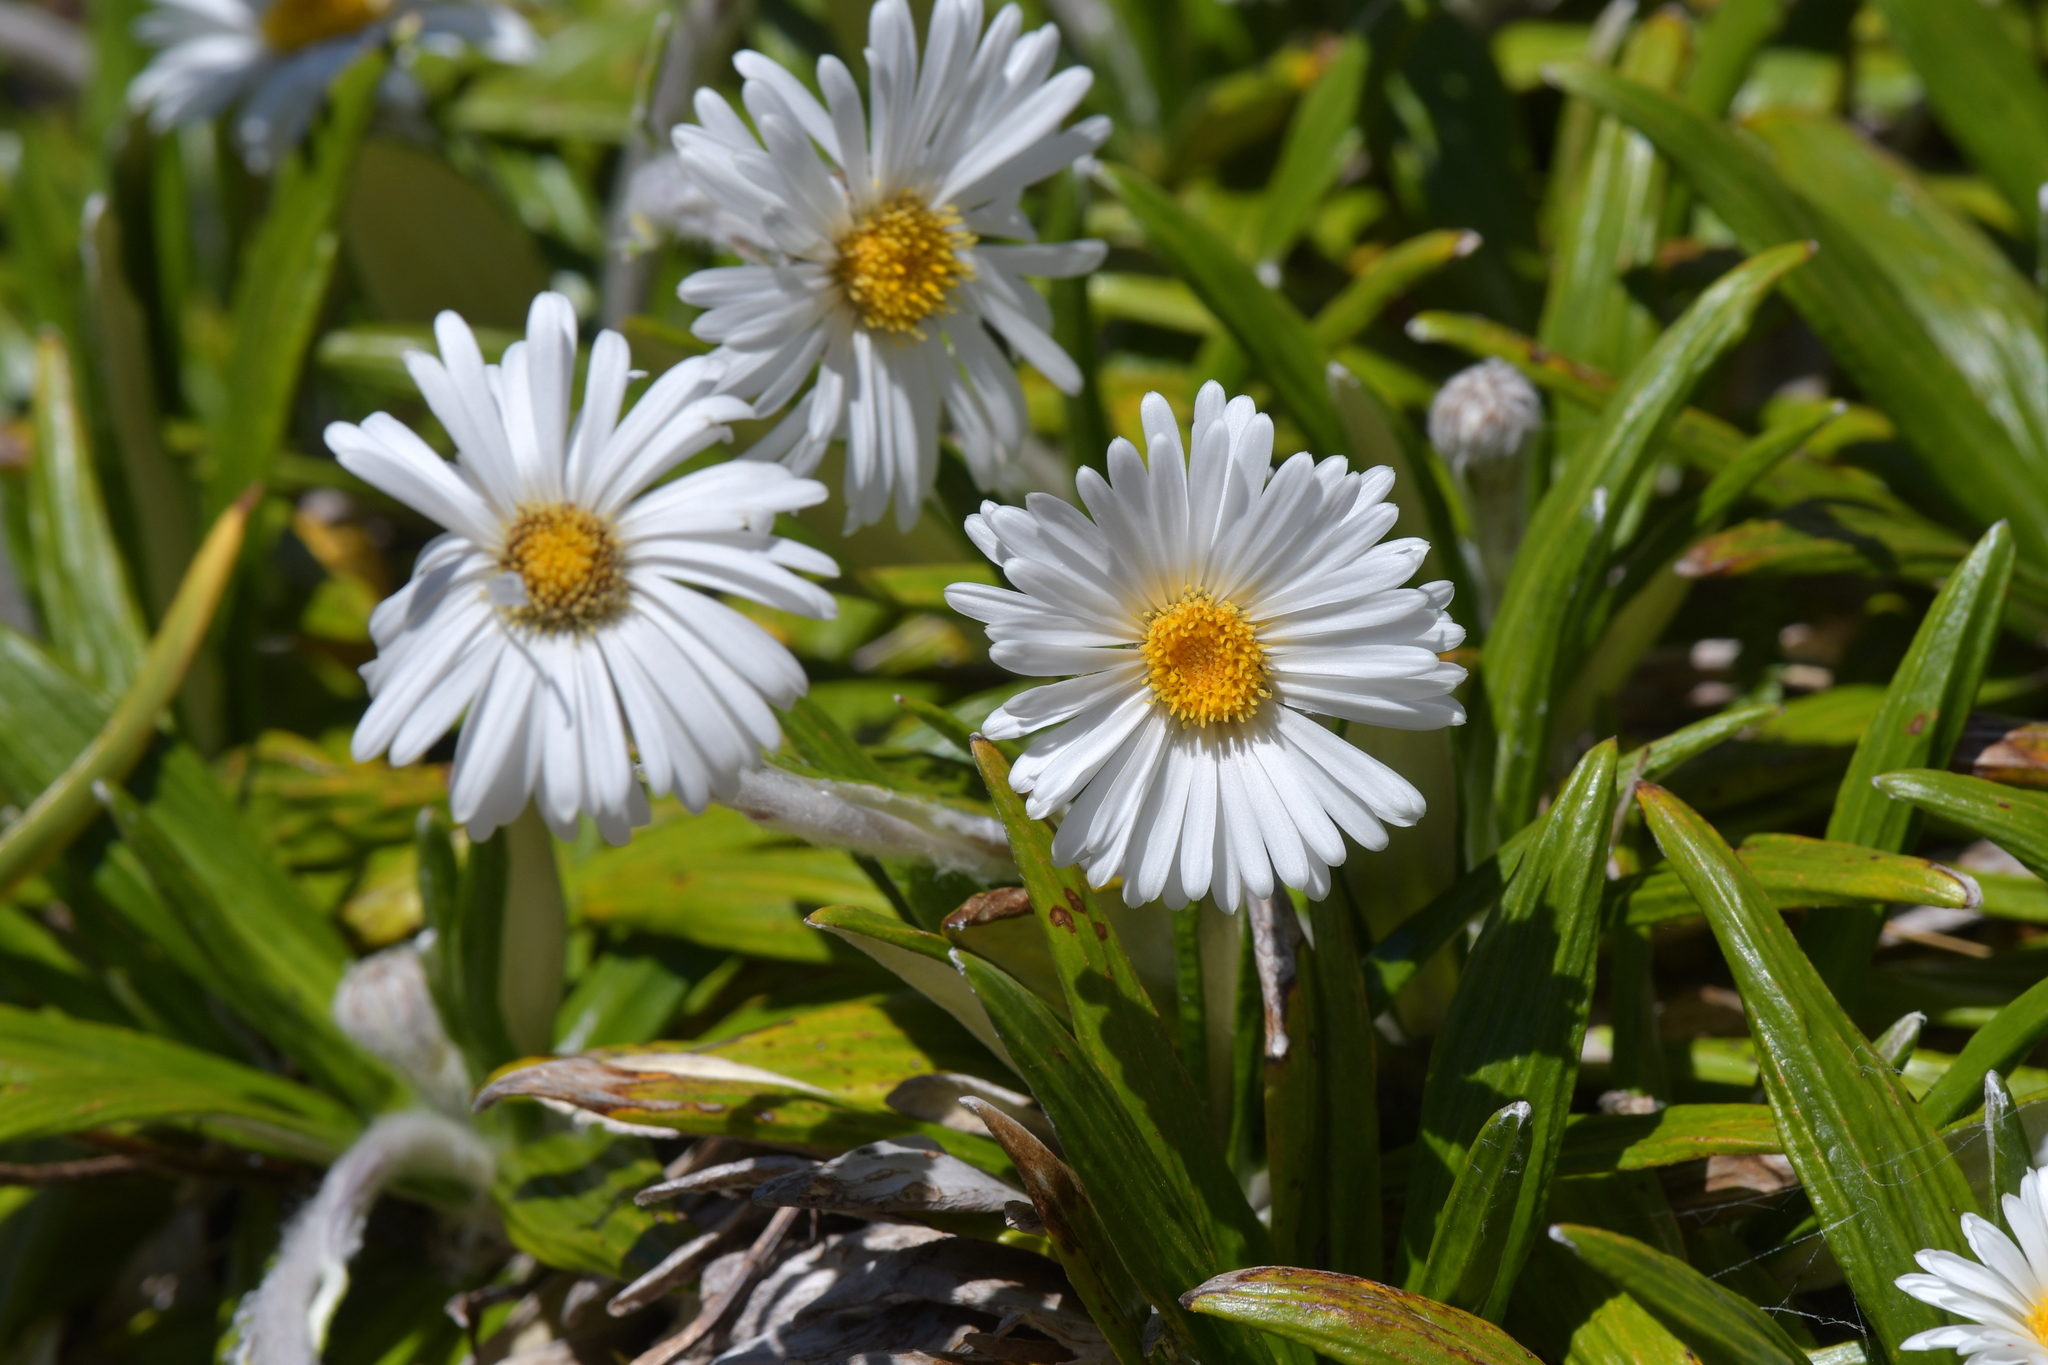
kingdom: Plantae
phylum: Tracheophyta
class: Magnoliopsida
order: Asterales
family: Asteraceae
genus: Celmisia
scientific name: Celmisia spectabilis
